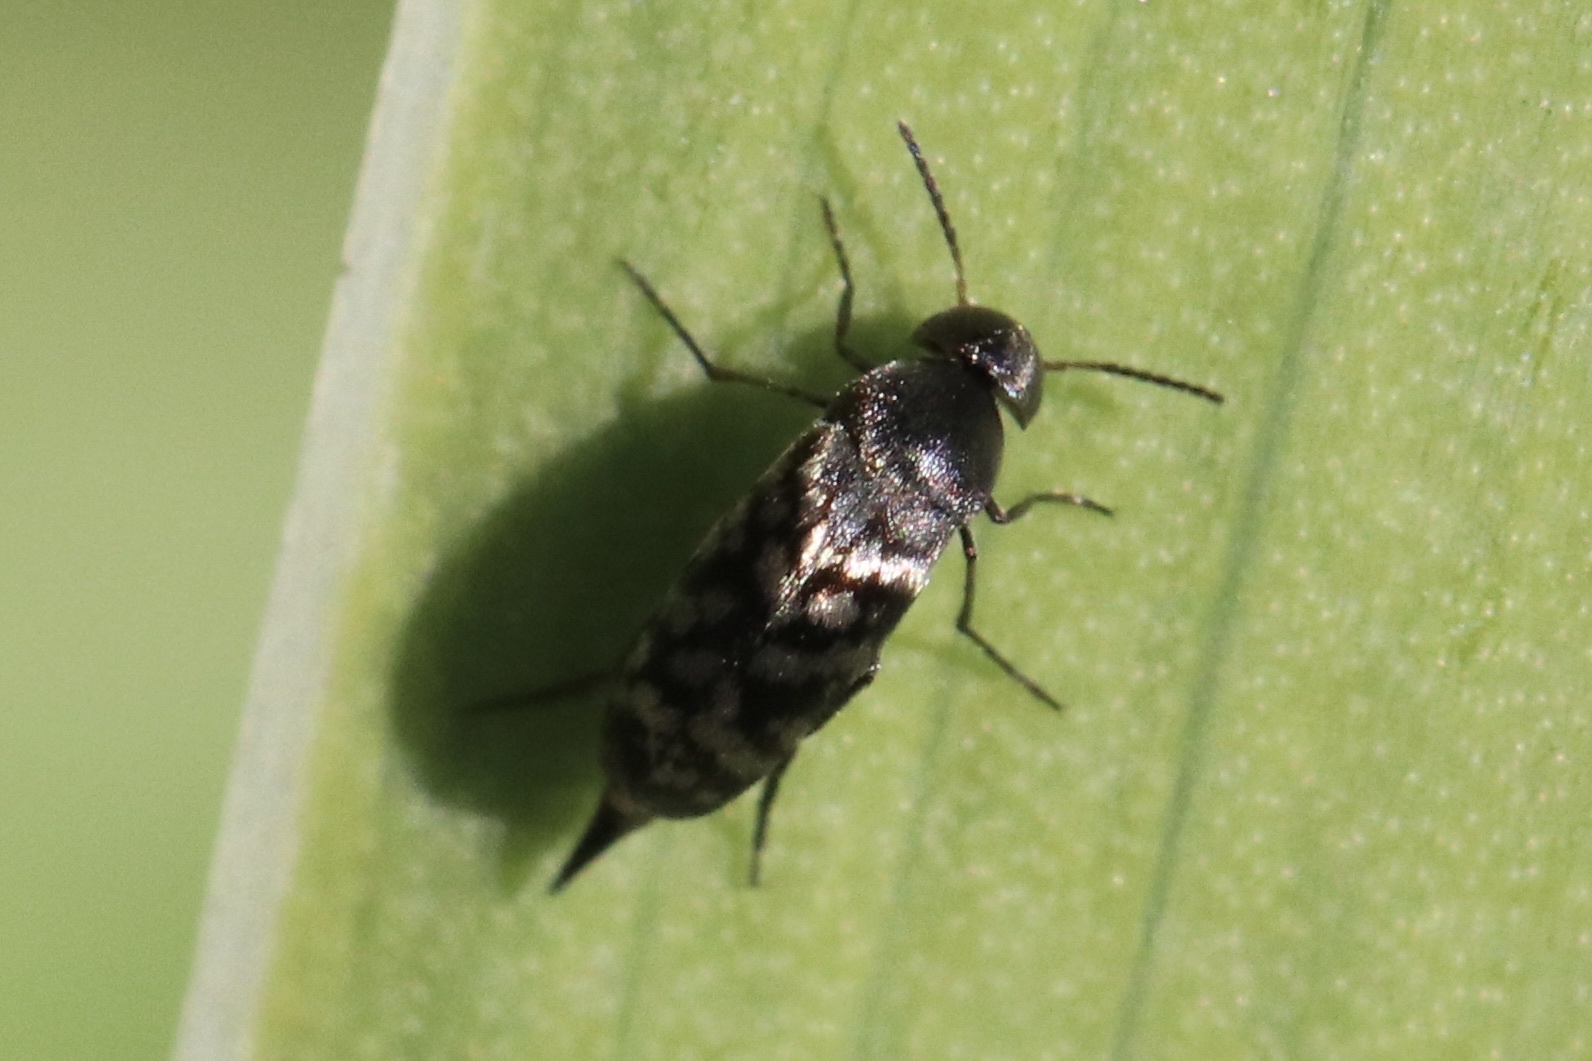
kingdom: Animalia
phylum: Arthropoda
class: Insecta
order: Coleoptera
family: Mordellidae
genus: Mordellina
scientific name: Mordellina pustulata
